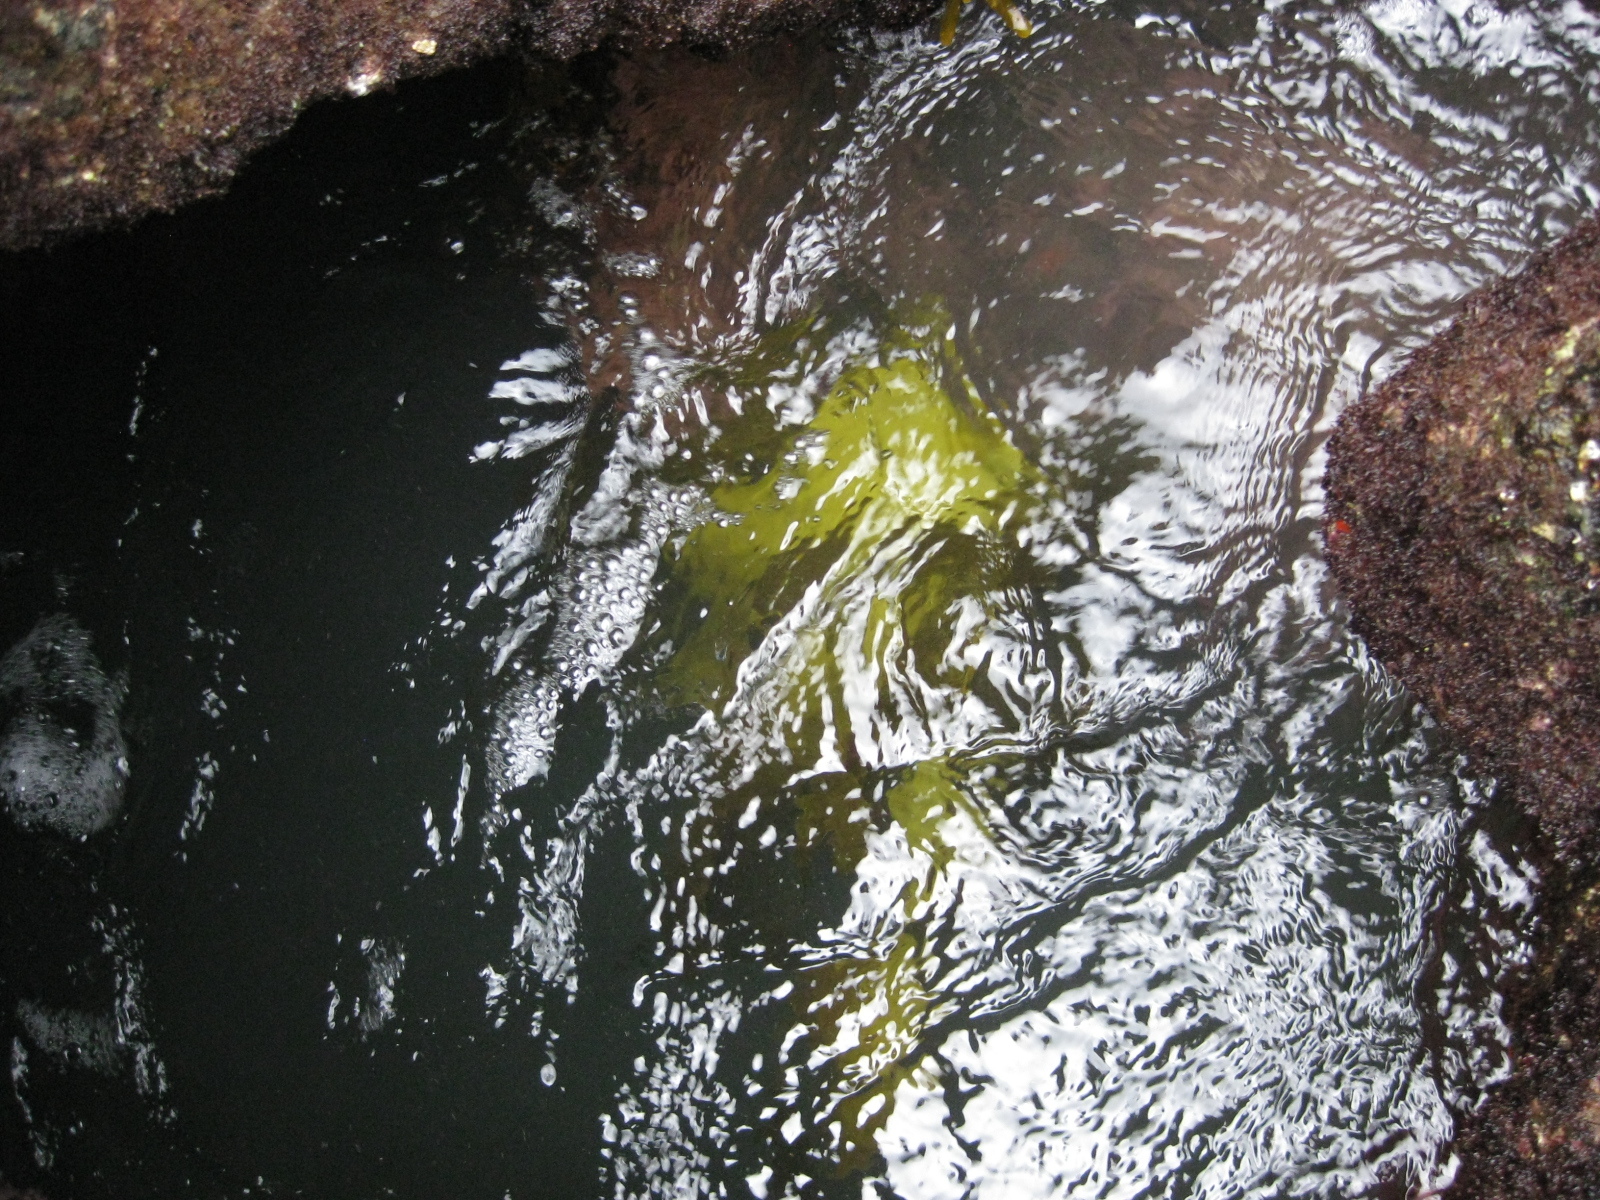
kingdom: Chromista
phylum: Ochrophyta
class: Phaeophyceae
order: Laminariales
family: Lessoniaceae
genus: Ecklonia
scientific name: Ecklonia radiata
